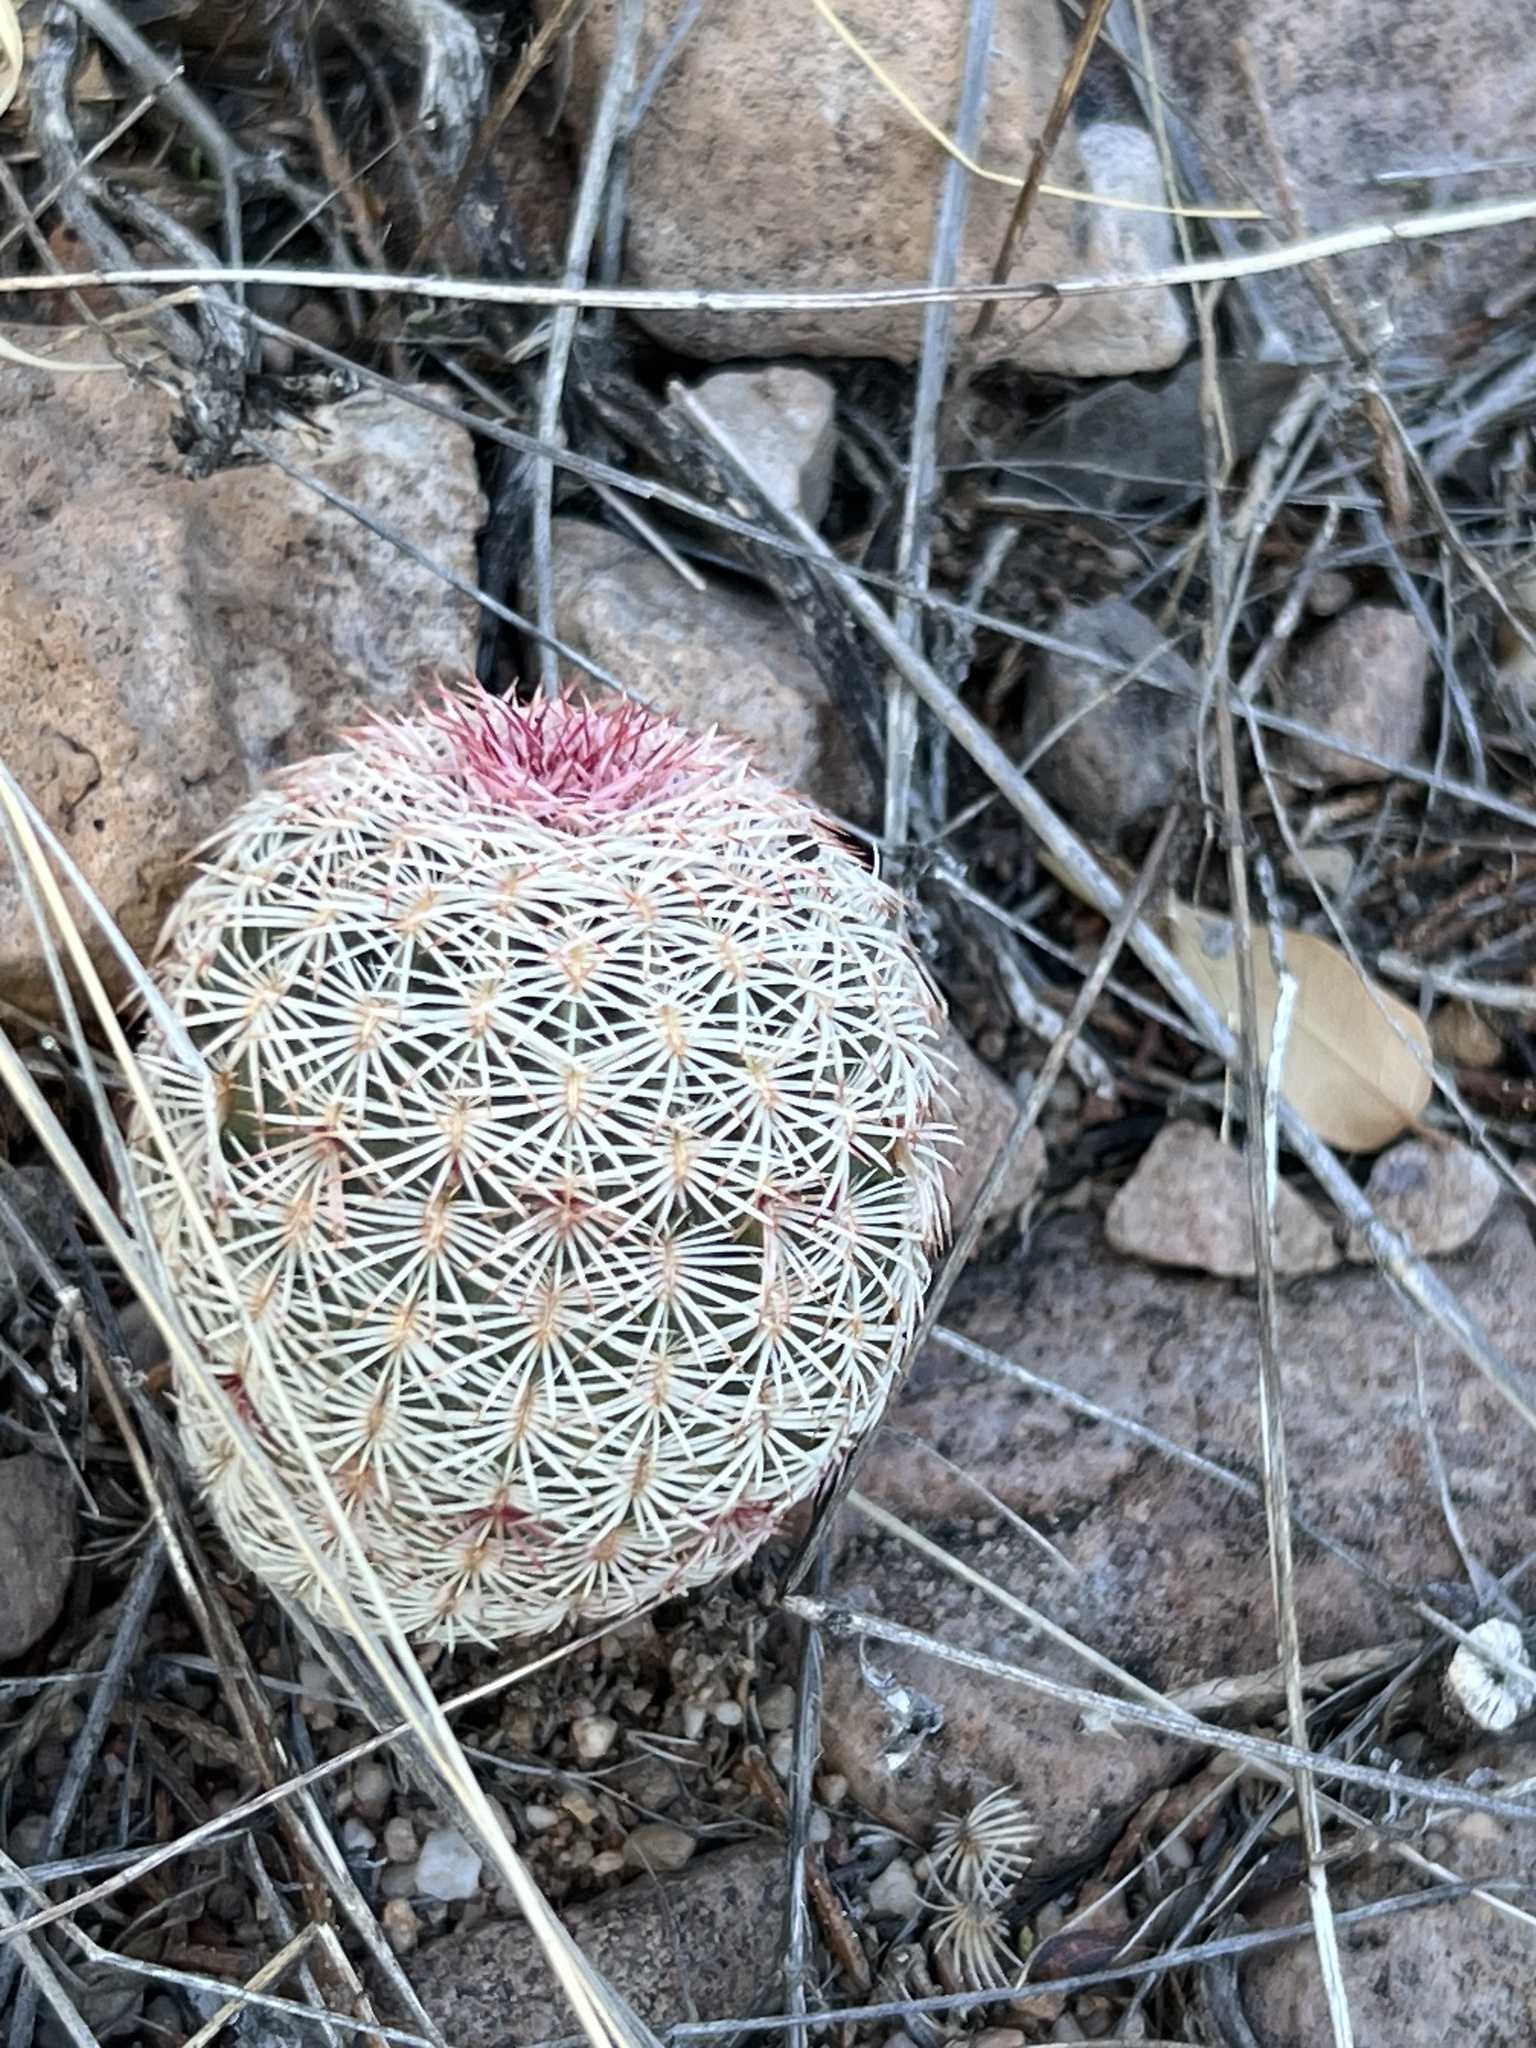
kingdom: Plantae
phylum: Tracheophyta
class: Magnoliopsida
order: Caryophyllales
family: Cactaceae
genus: Echinocereus
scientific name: Echinocereus rigidissimus
